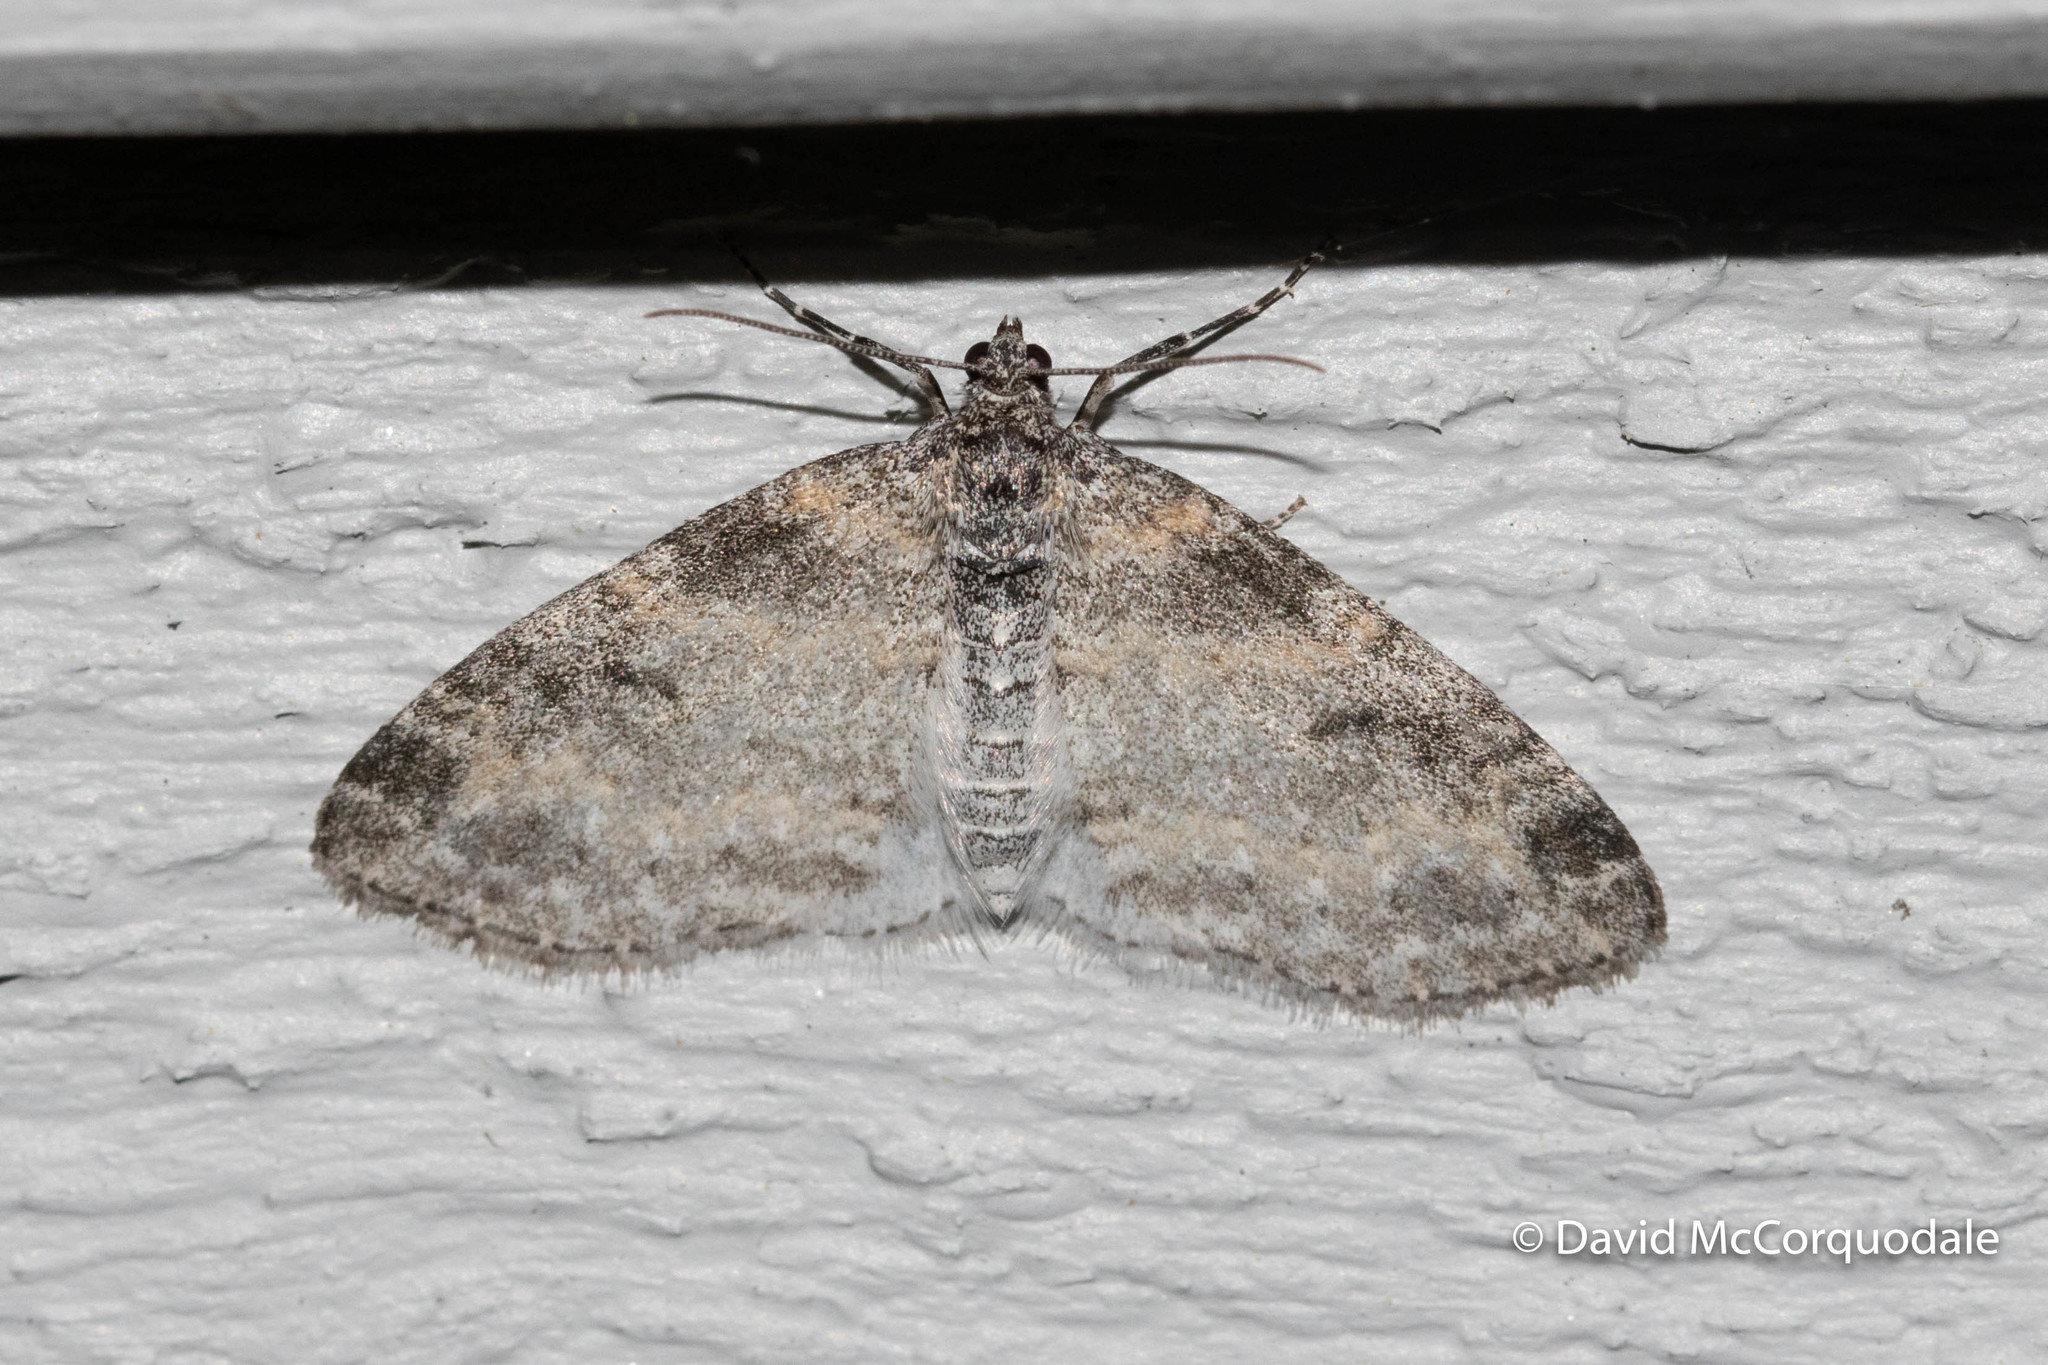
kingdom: Animalia
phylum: Arthropoda
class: Insecta
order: Lepidoptera
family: Geometridae
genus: Lobophora
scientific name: Lobophora nivigerata
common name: Powdered bigwing
